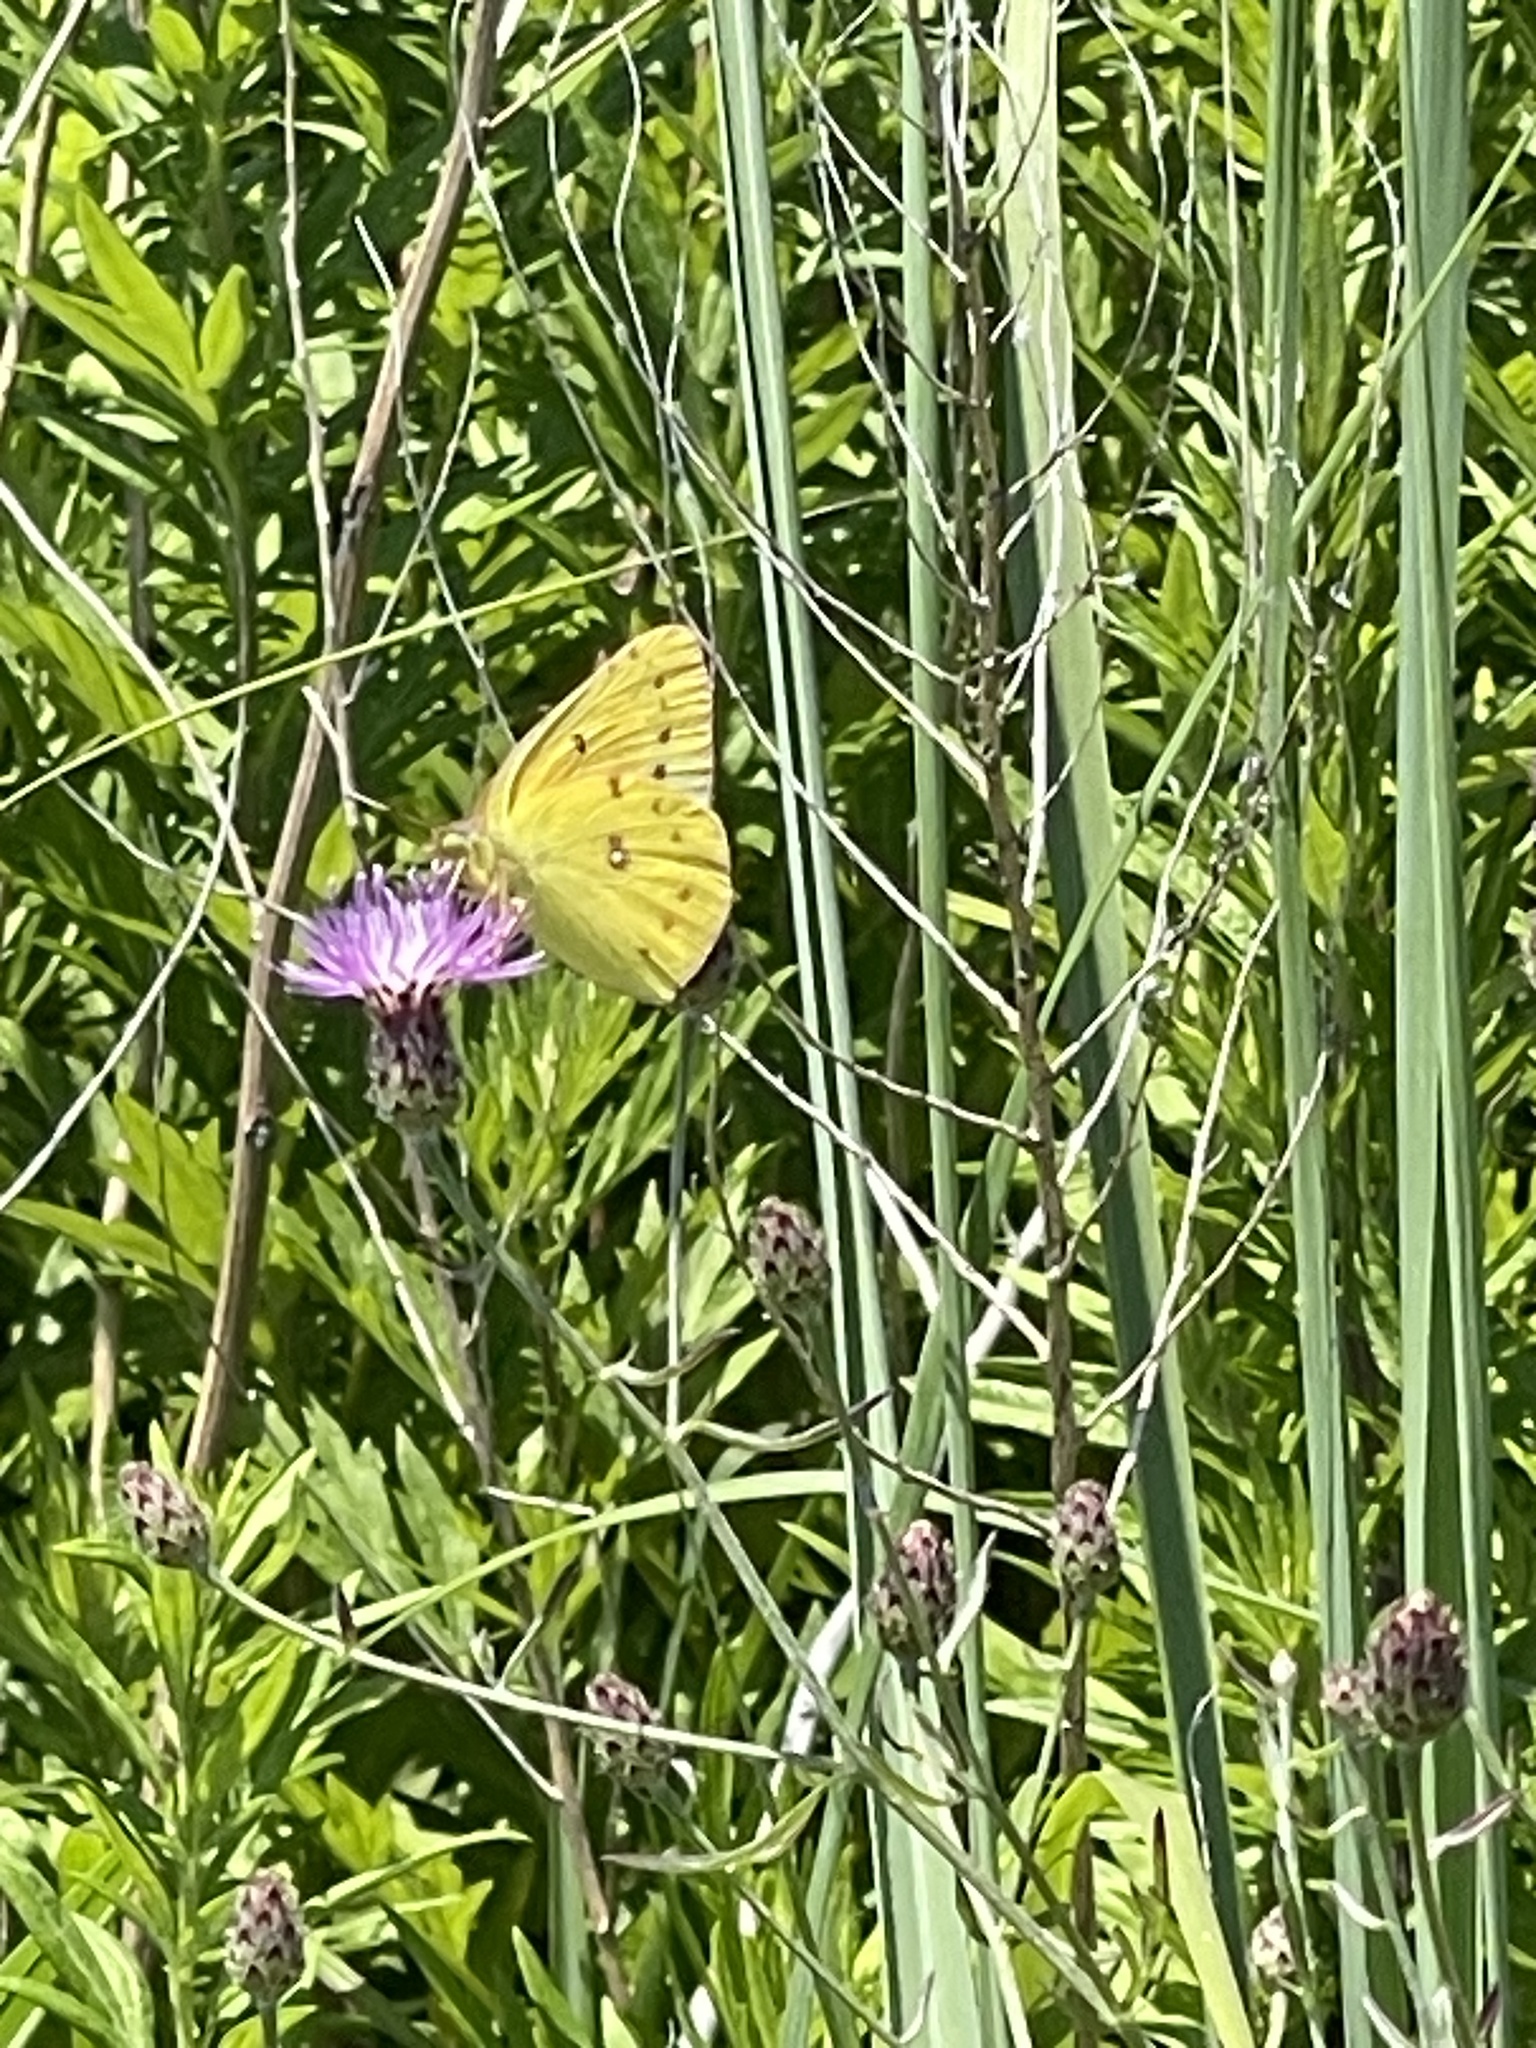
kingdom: Animalia
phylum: Arthropoda
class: Insecta
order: Lepidoptera
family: Pieridae
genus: Colias
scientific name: Colias eurytheme
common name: Alfalfa butterfly
